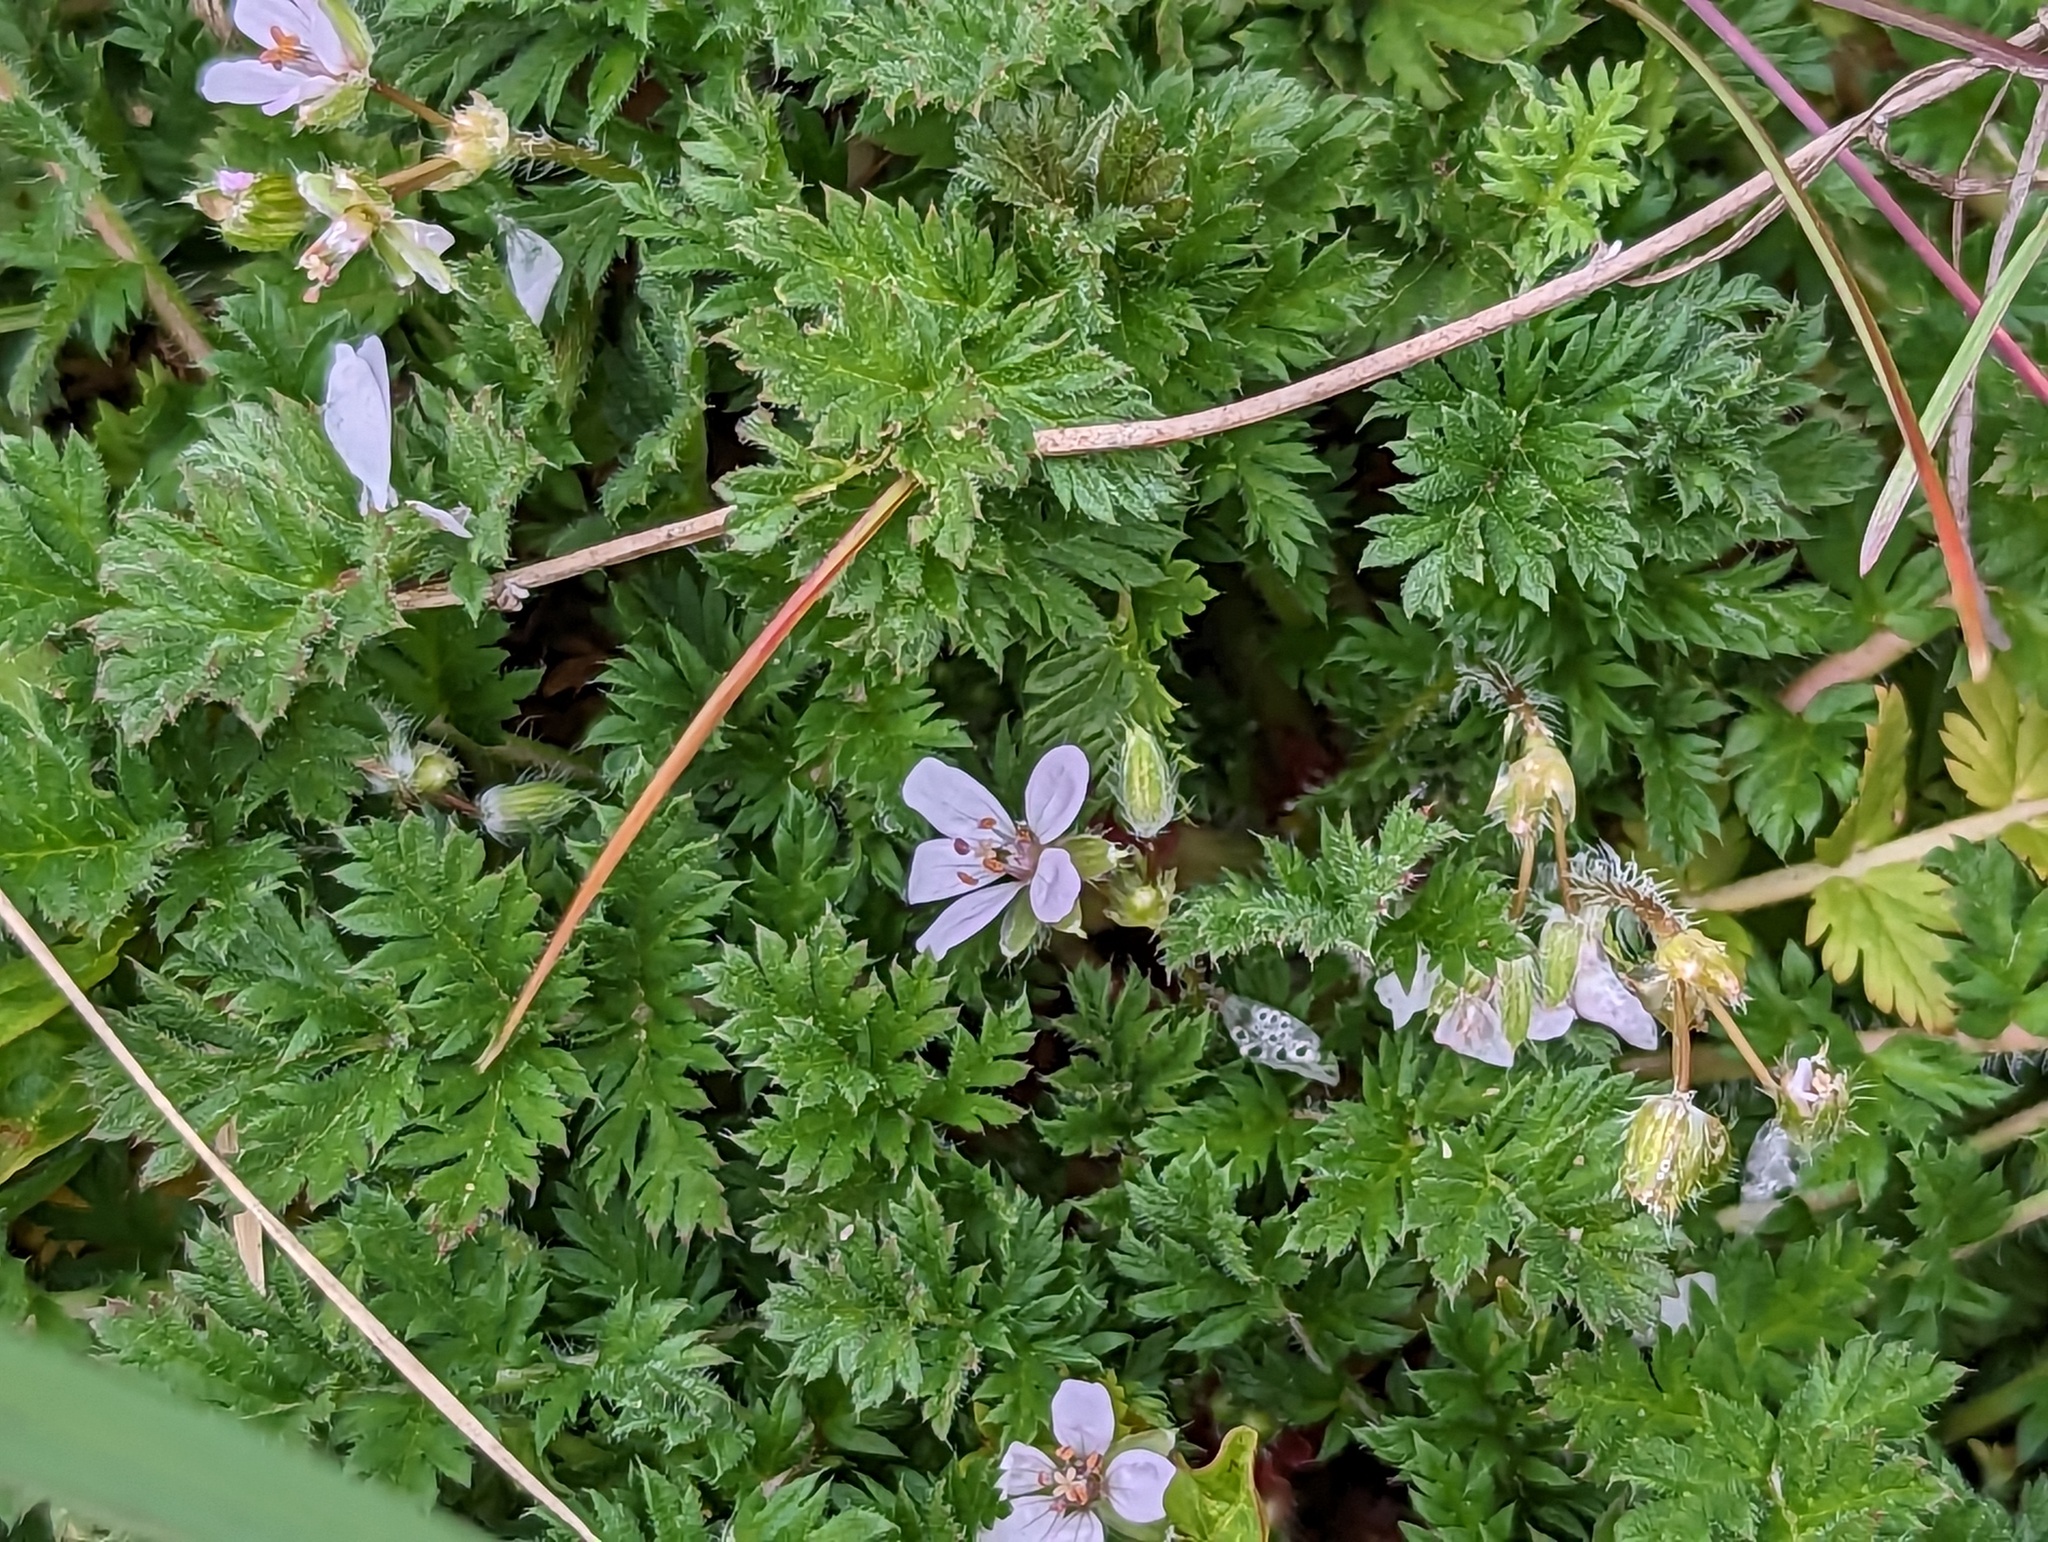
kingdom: Plantae
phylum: Tracheophyta
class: Magnoliopsida
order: Geraniales
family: Geraniaceae
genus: Erodium
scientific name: Erodium cicutarium
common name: Common stork's-bill
